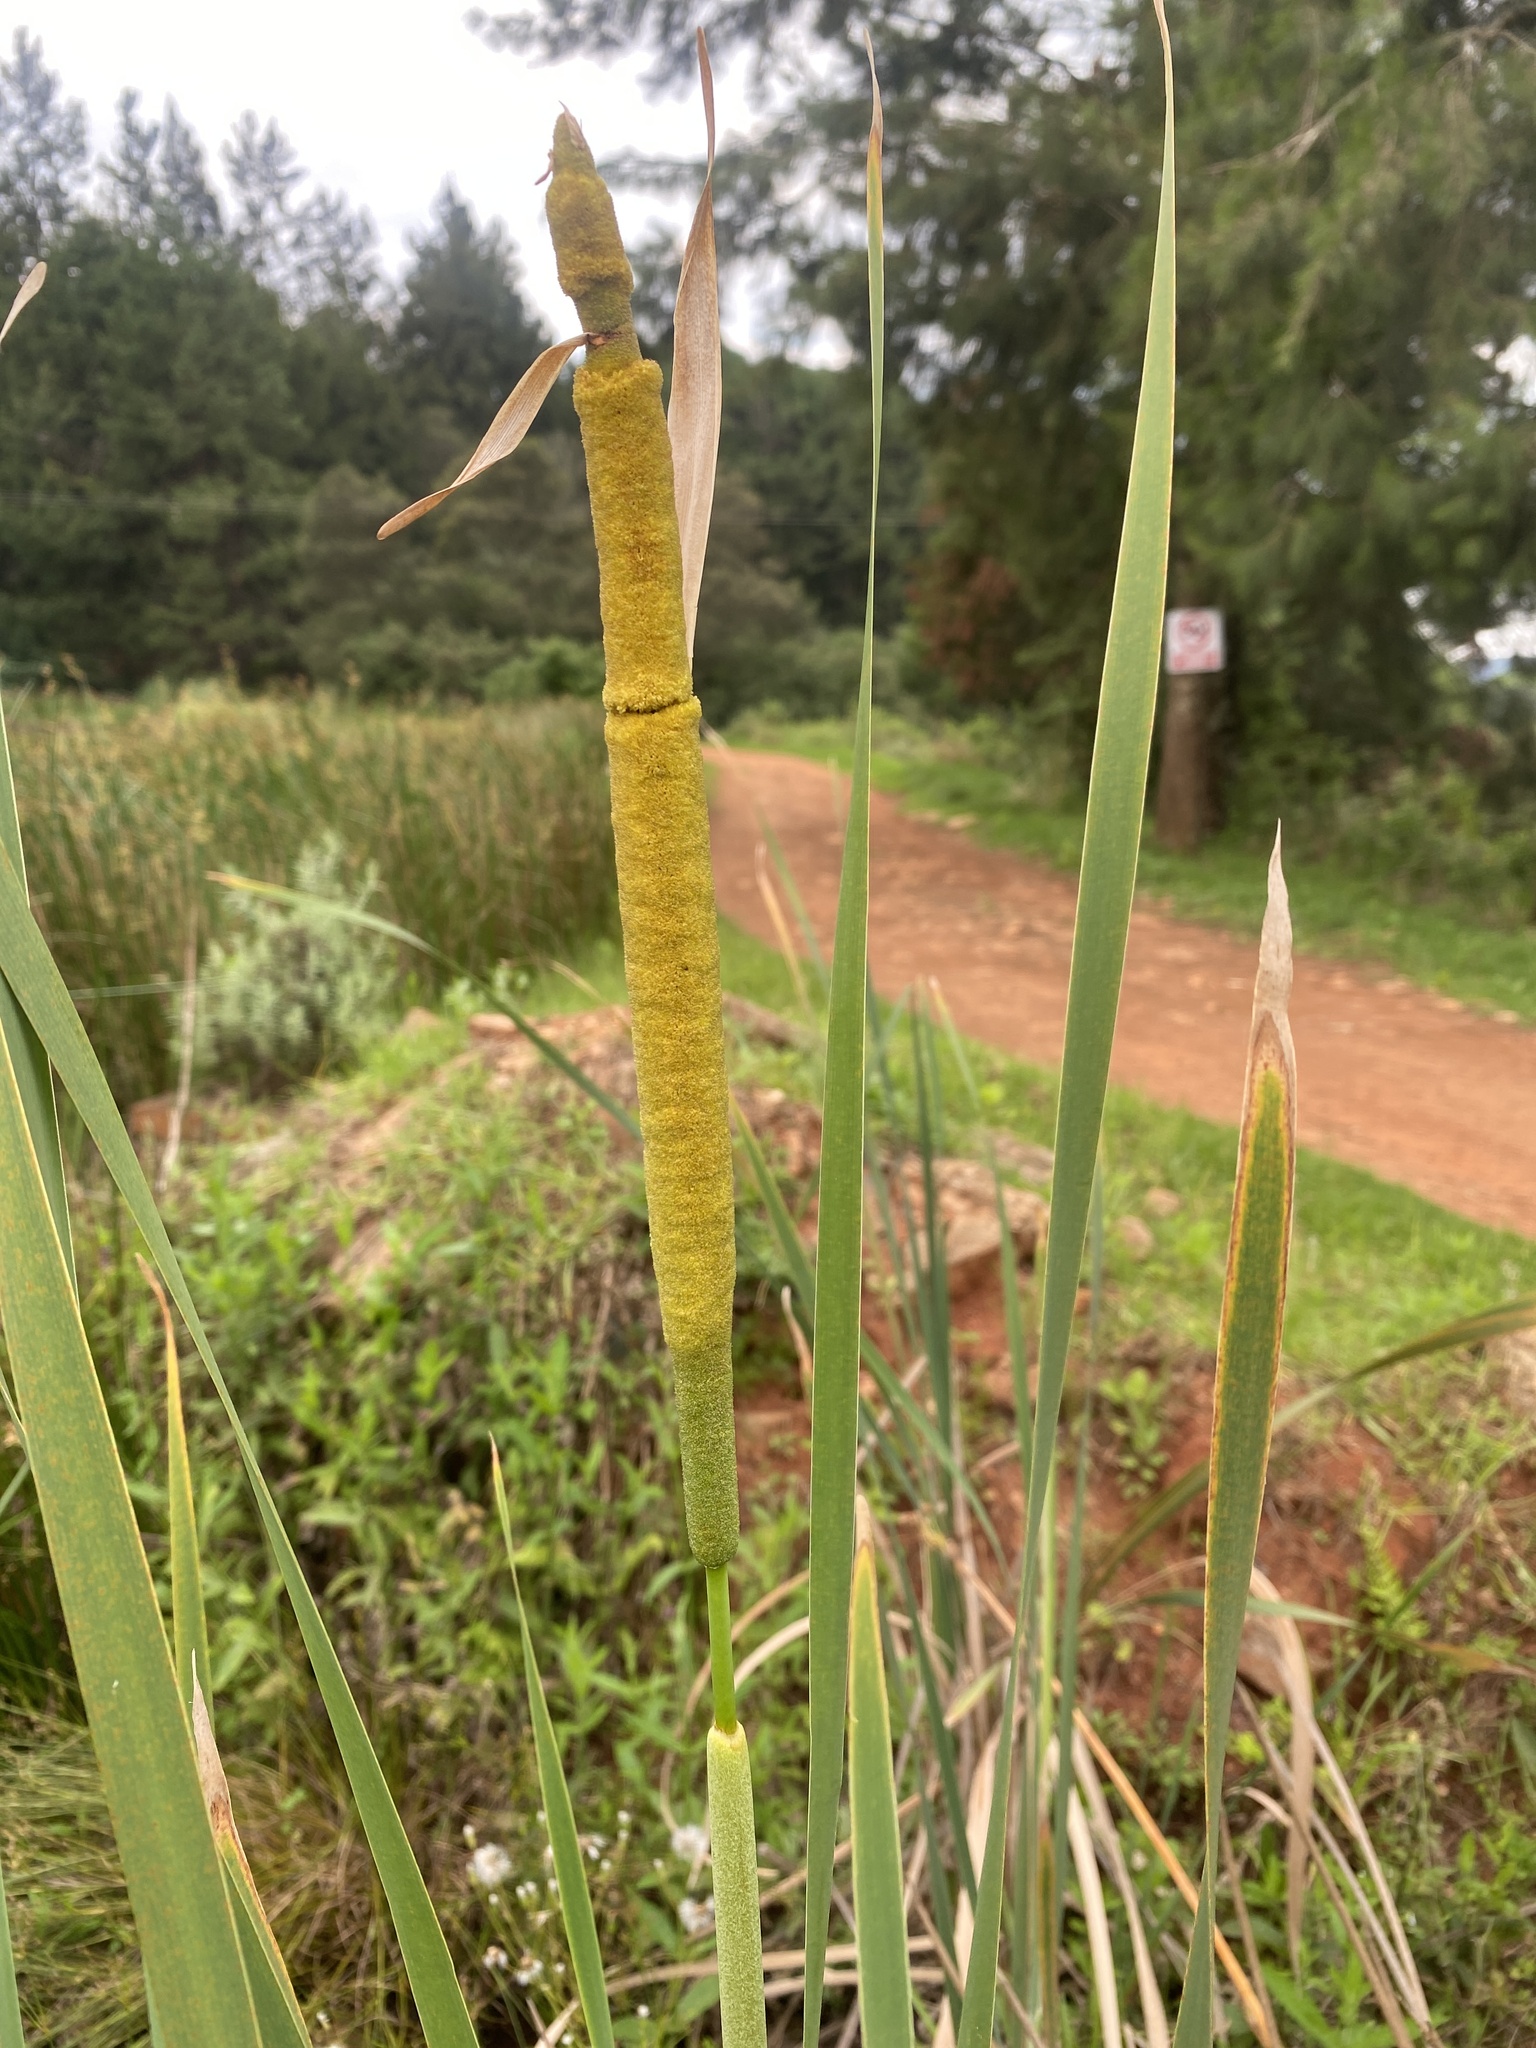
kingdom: Plantae
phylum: Tracheophyta
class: Liliopsida
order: Poales
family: Typhaceae
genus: Typha
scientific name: Typha capensis
